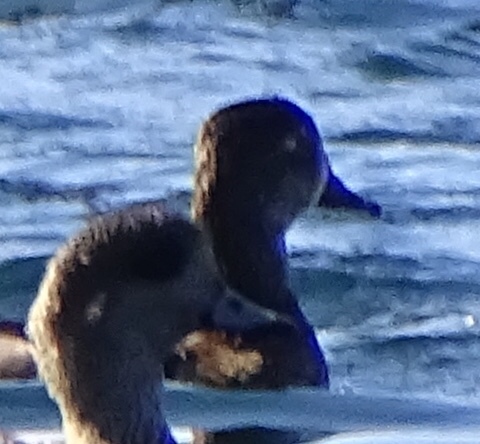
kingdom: Animalia
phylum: Chordata
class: Aves
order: Anseriformes
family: Anatidae
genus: Aythya
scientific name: Aythya collaris
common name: Ring-necked duck
